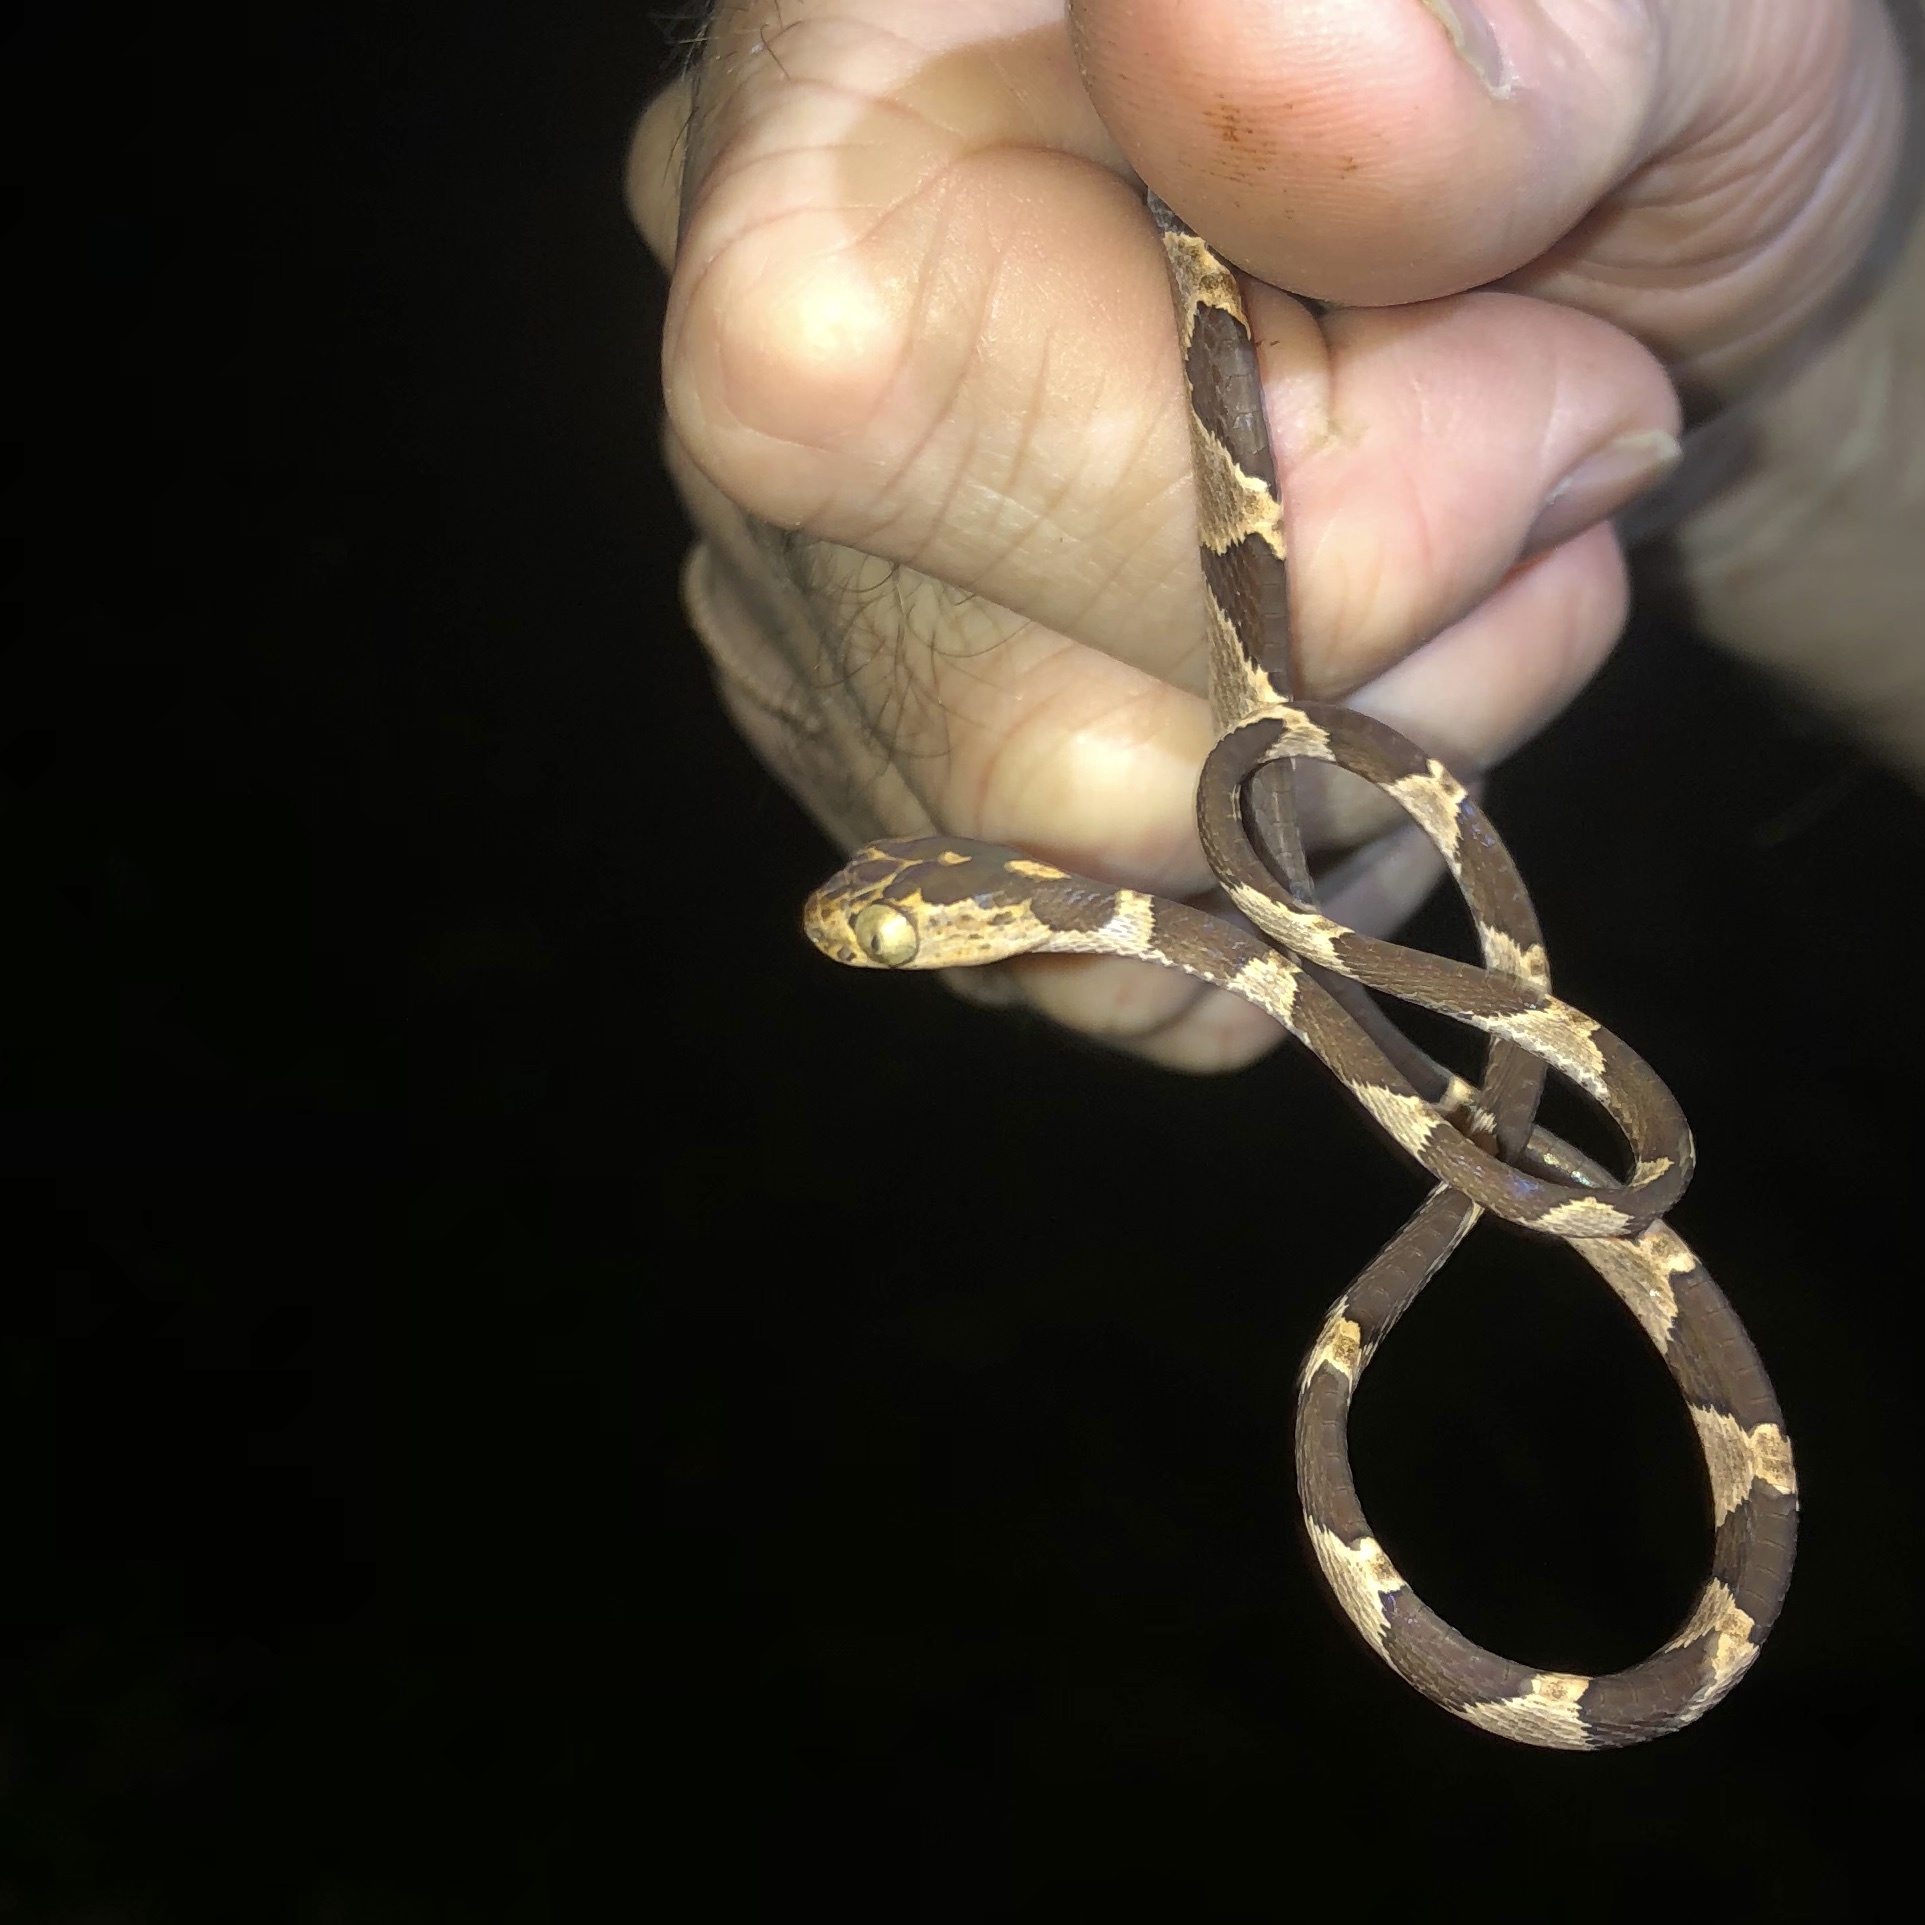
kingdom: Animalia
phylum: Chordata
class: Squamata
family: Colubridae
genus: Imantodes
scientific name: Imantodes cenchoa
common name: Blunthead tree snake
